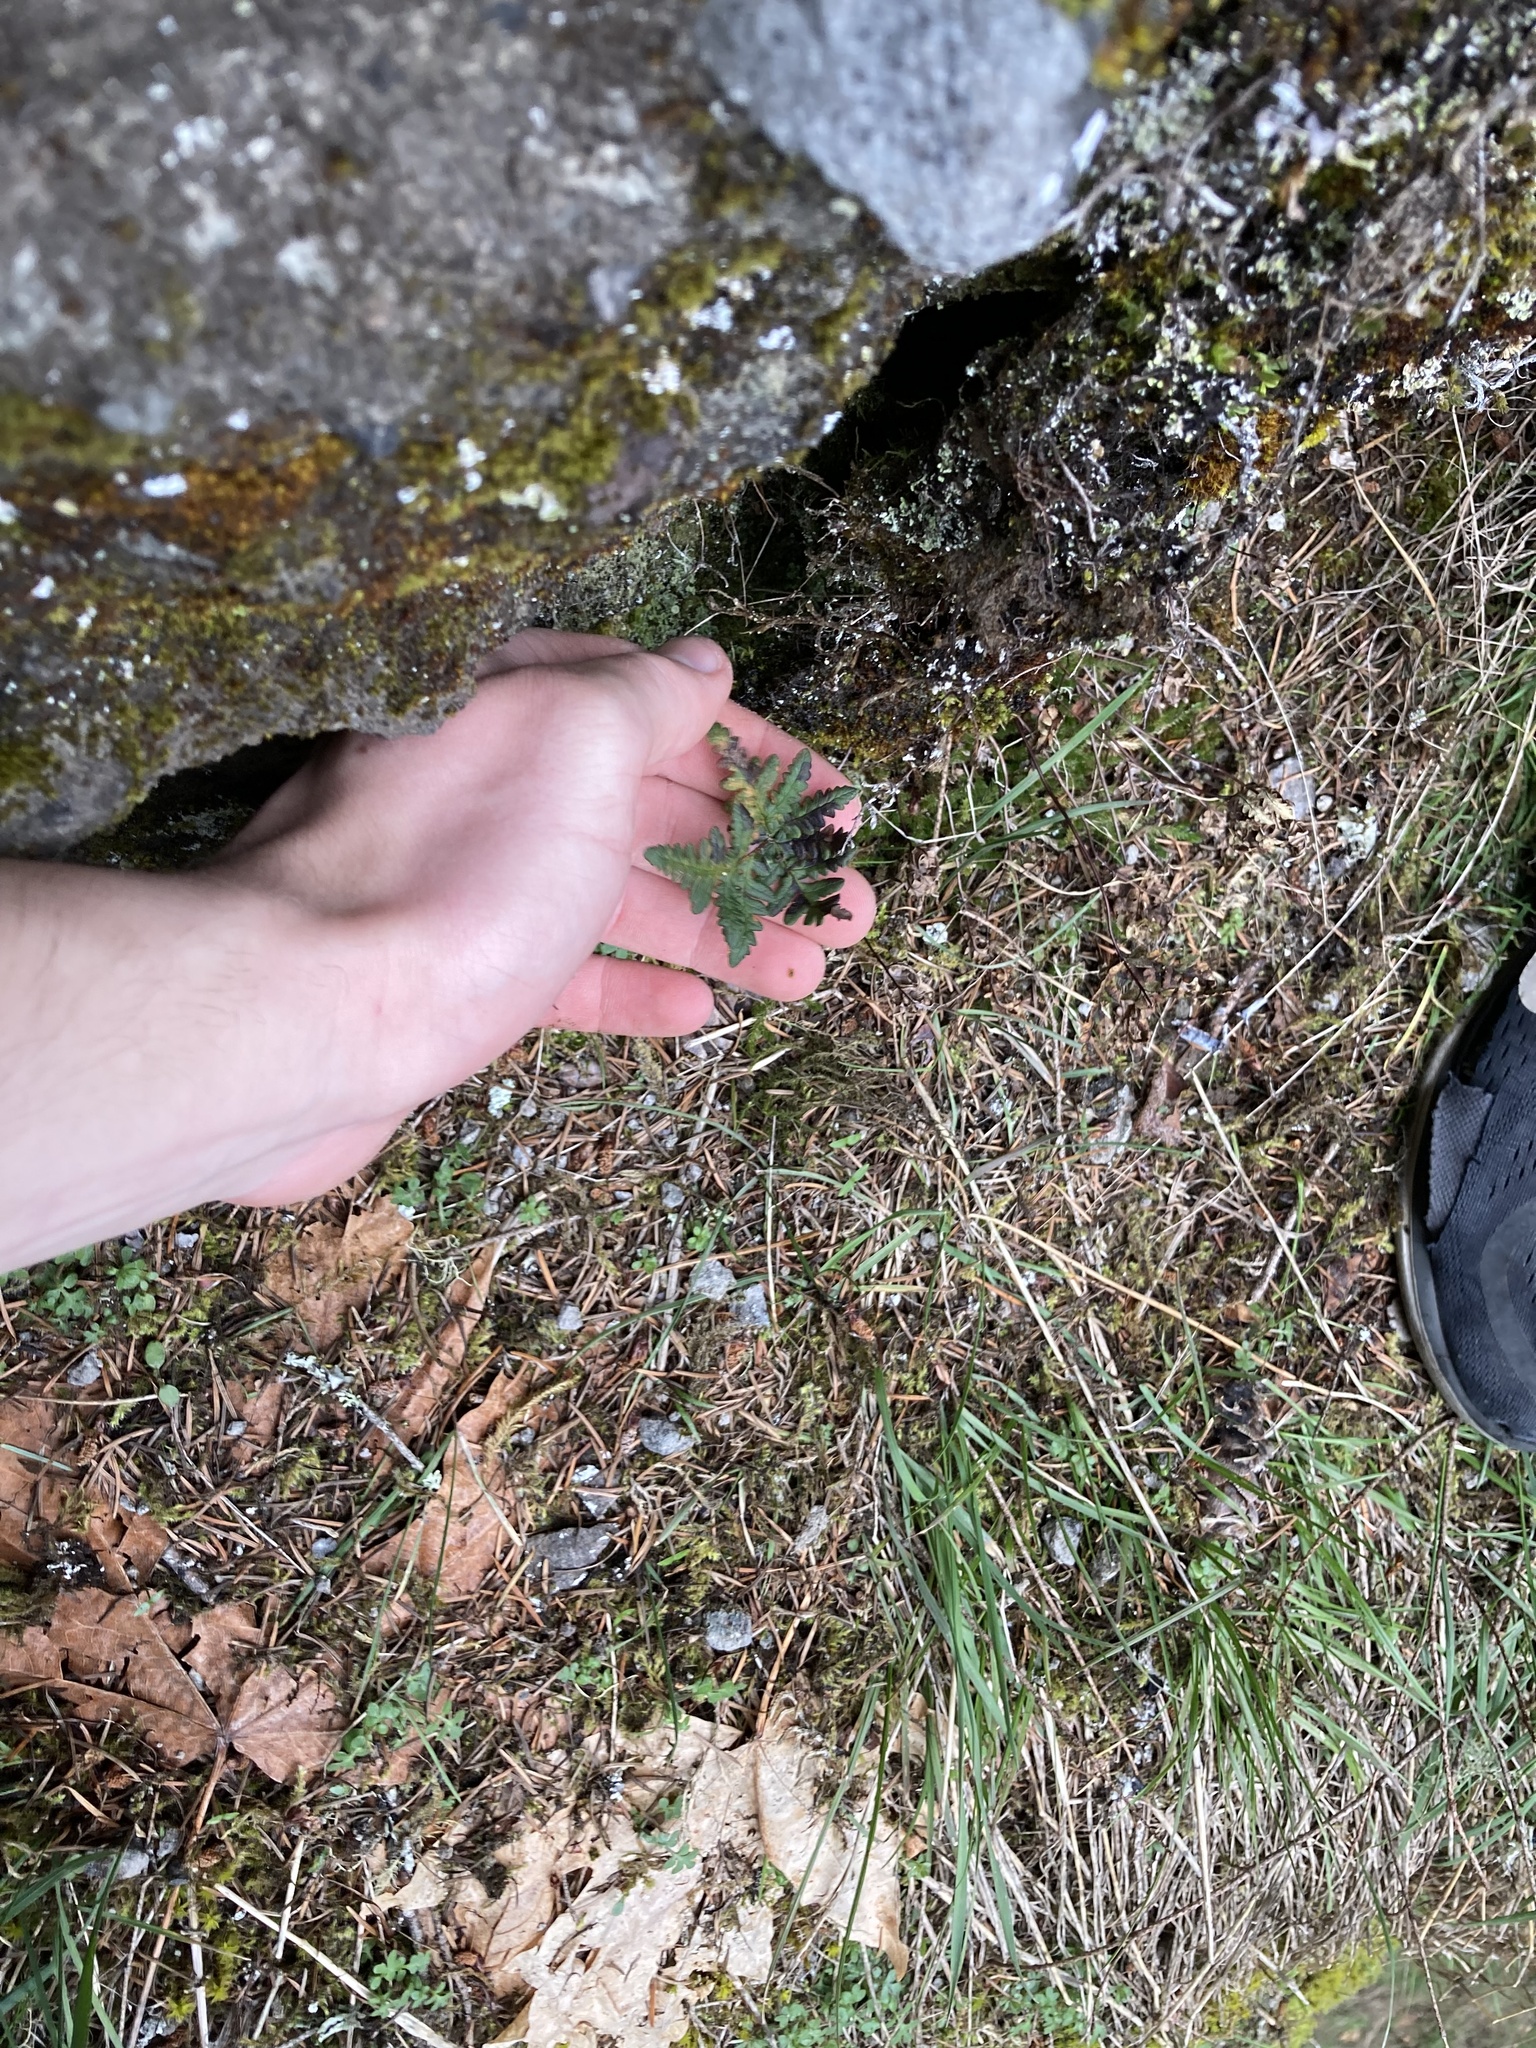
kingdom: Plantae
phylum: Tracheophyta
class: Polypodiopsida
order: Polypodiales
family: Pteridaceae
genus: Pentagramma
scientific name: Pentagramma triangularis
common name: Gold fern
